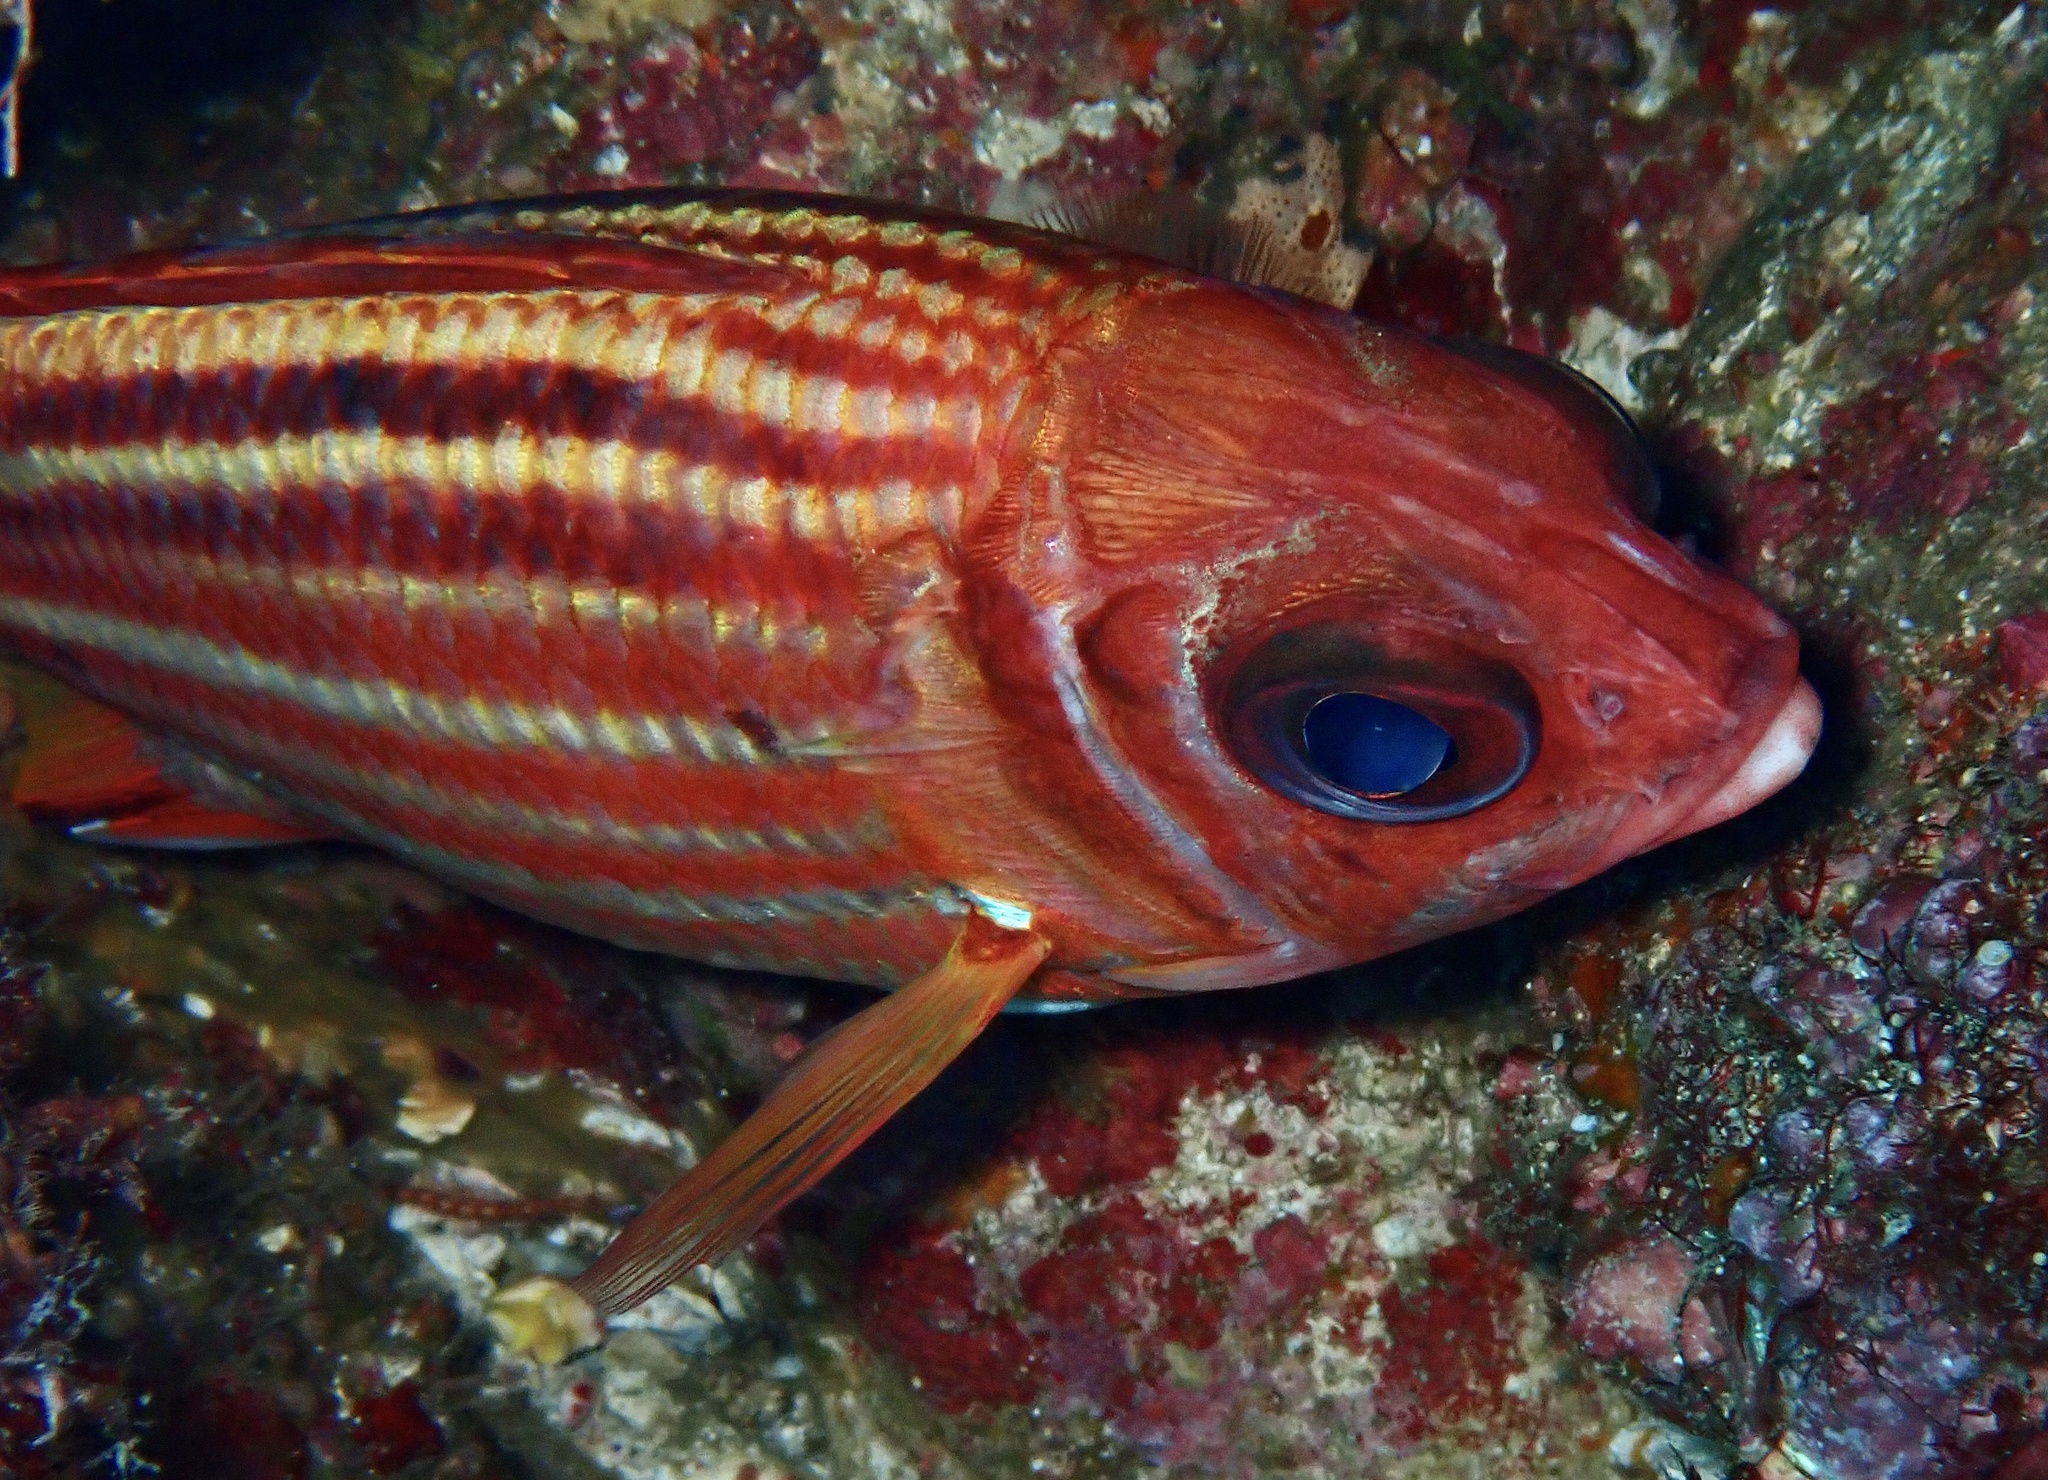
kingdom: Animalia
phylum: Chordata
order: Beryciformes
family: Holocentridae
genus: Sargocentron
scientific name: Sargocentron rubrum
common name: Redcoat
